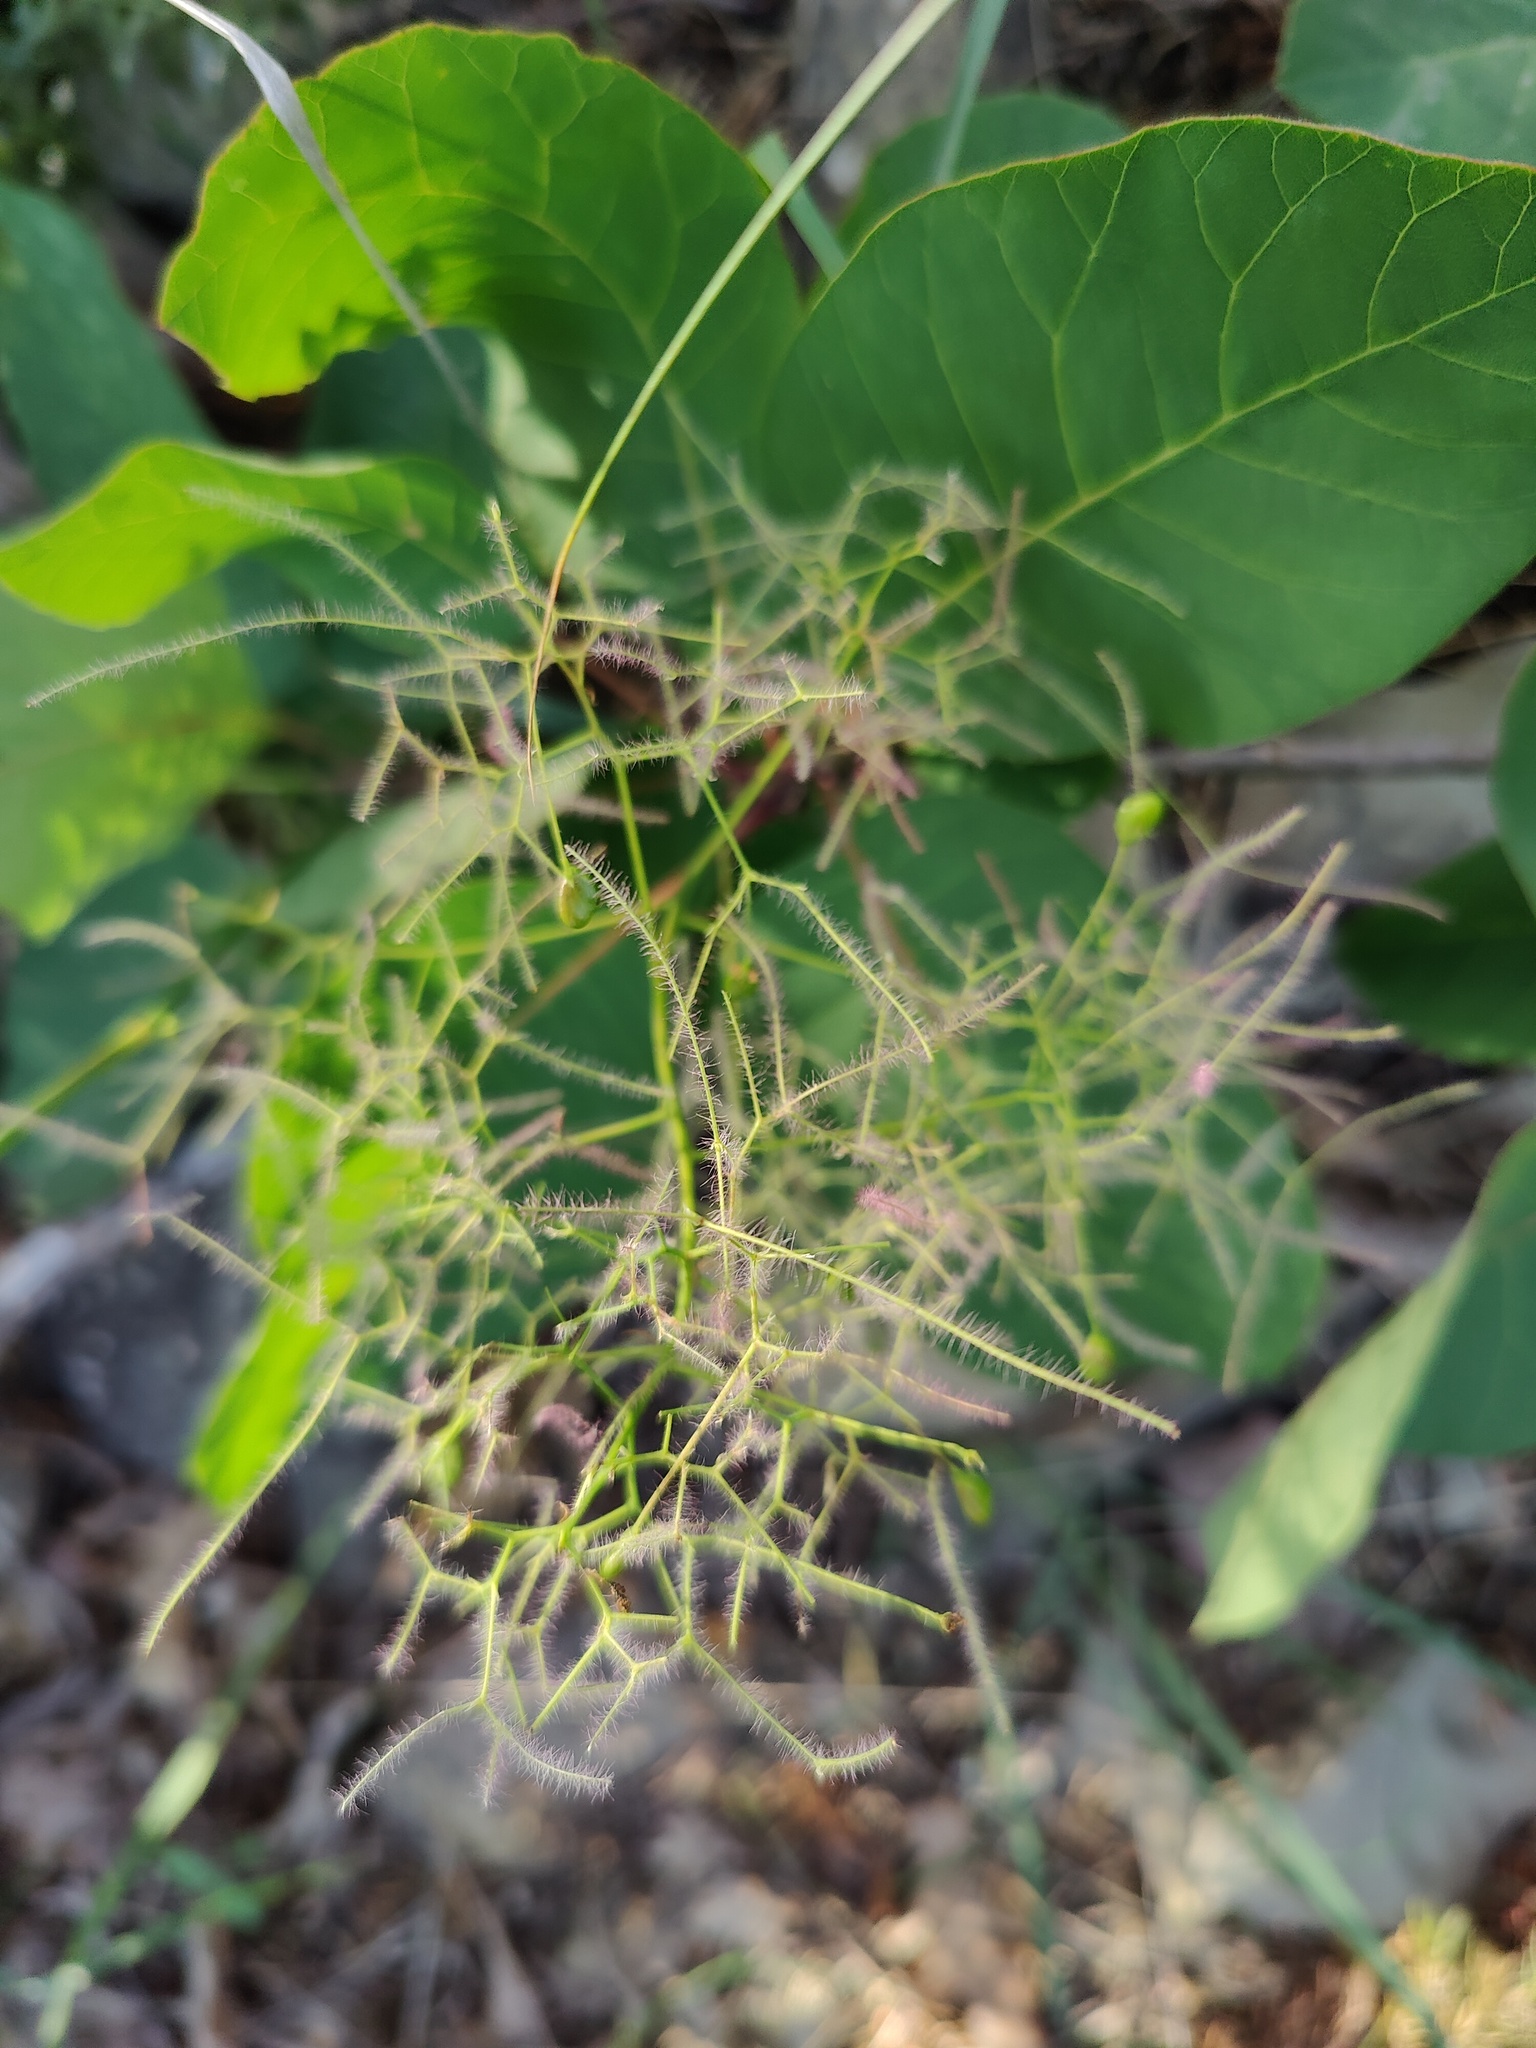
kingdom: Plantae
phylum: Tracheophyta
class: Magnoliopsida
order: Sapindales
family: Anacardiaceae
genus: Cotinus
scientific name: Cotinus coggygria
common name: Smoke-tree
